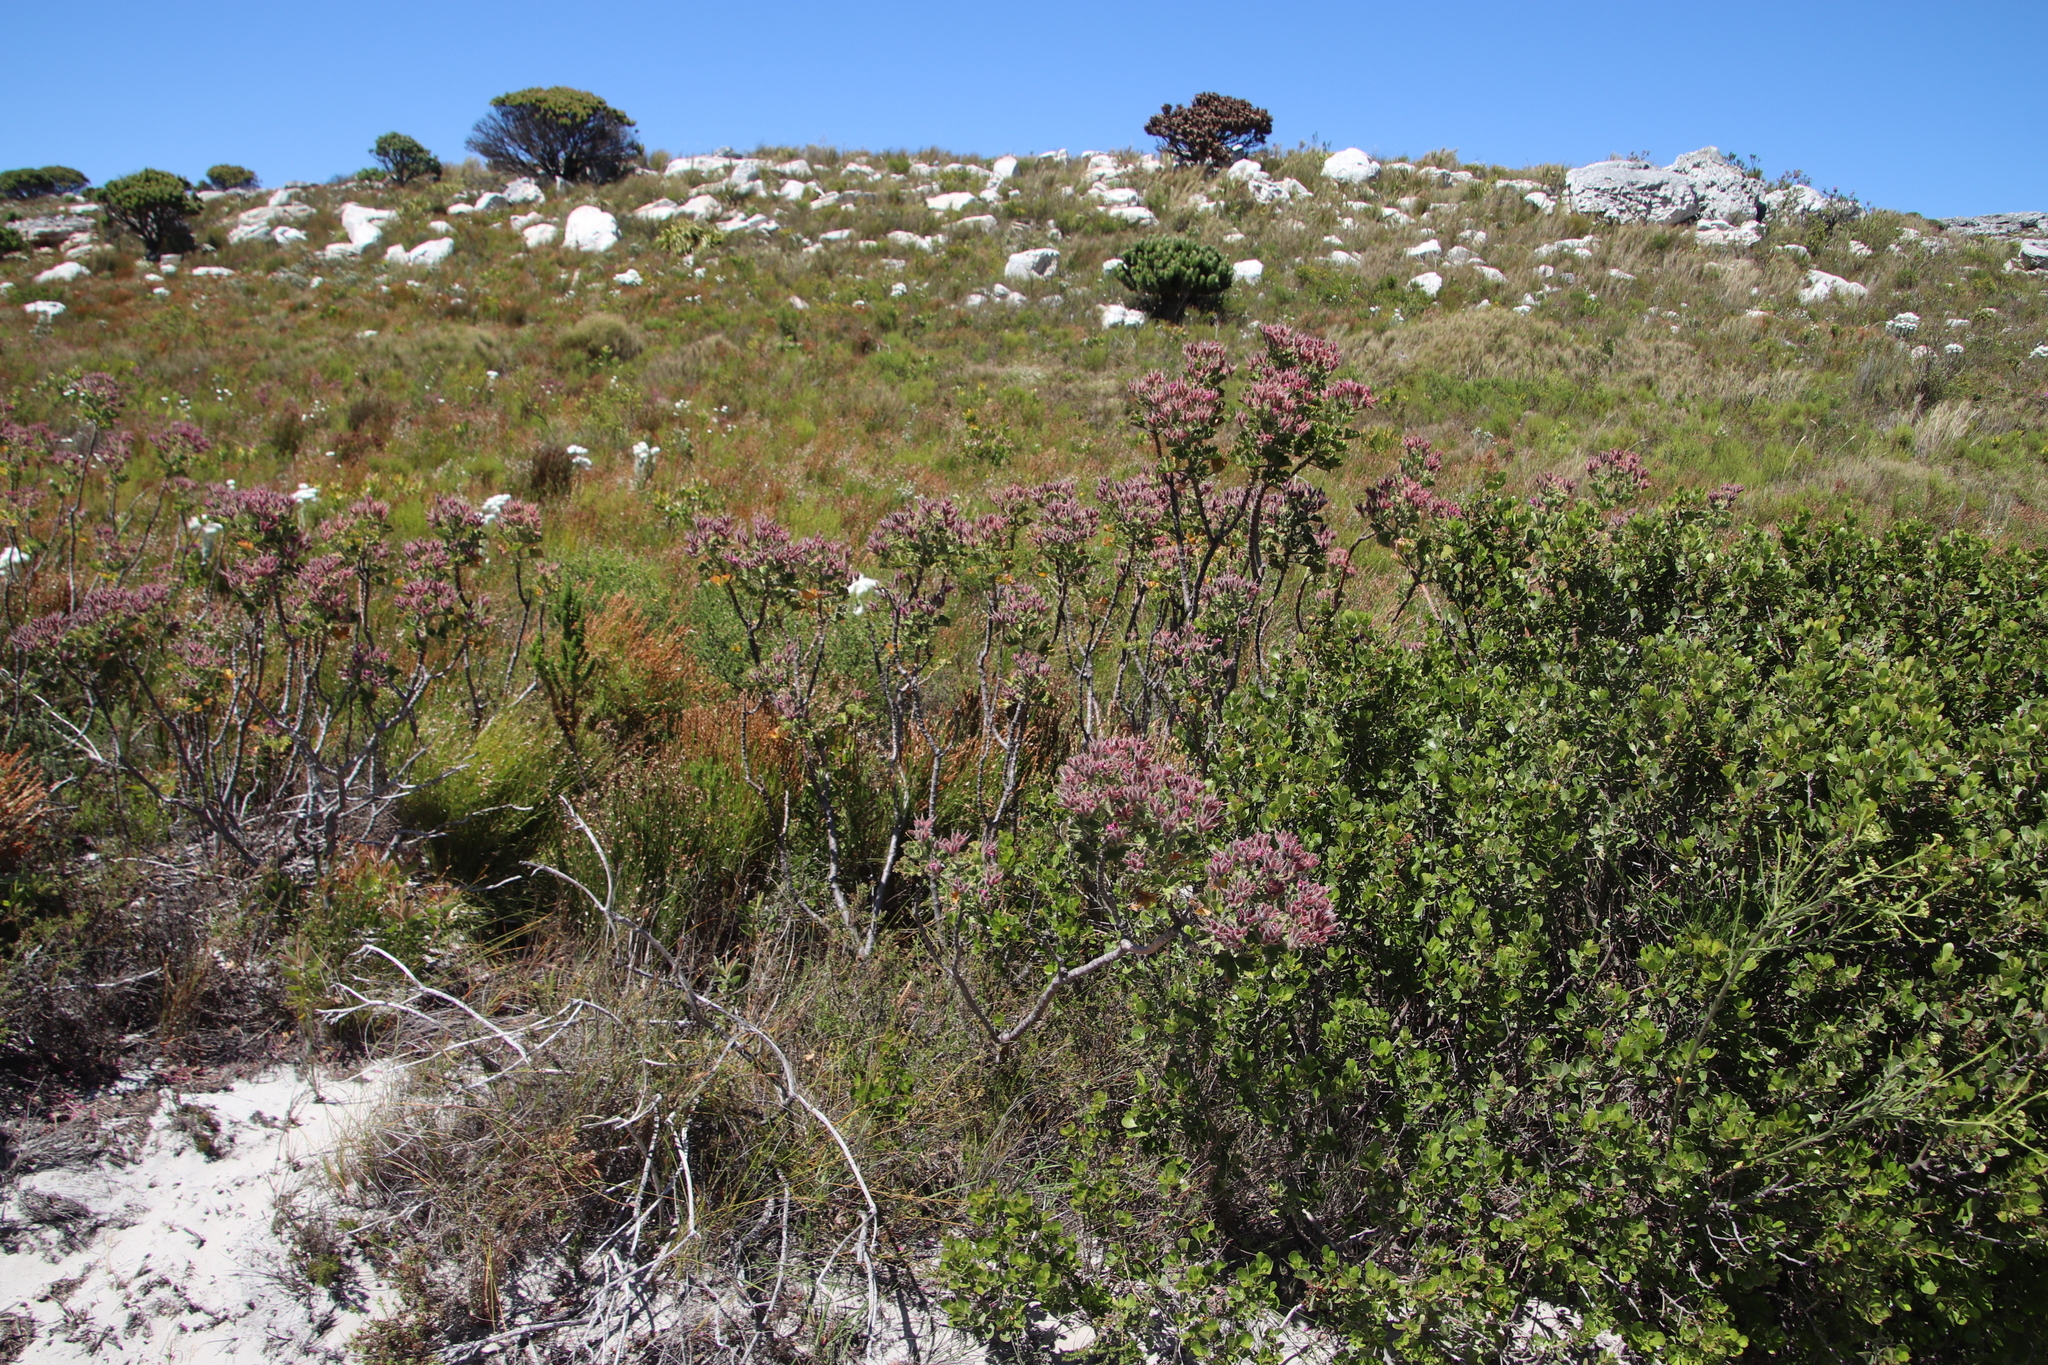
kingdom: Plantae
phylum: Tracheophyta
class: Magnoliopsida
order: Geraniales
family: Geraniaceae
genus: Pelargonium
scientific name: Pelargonium cucullatum
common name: Tree pelargonium
